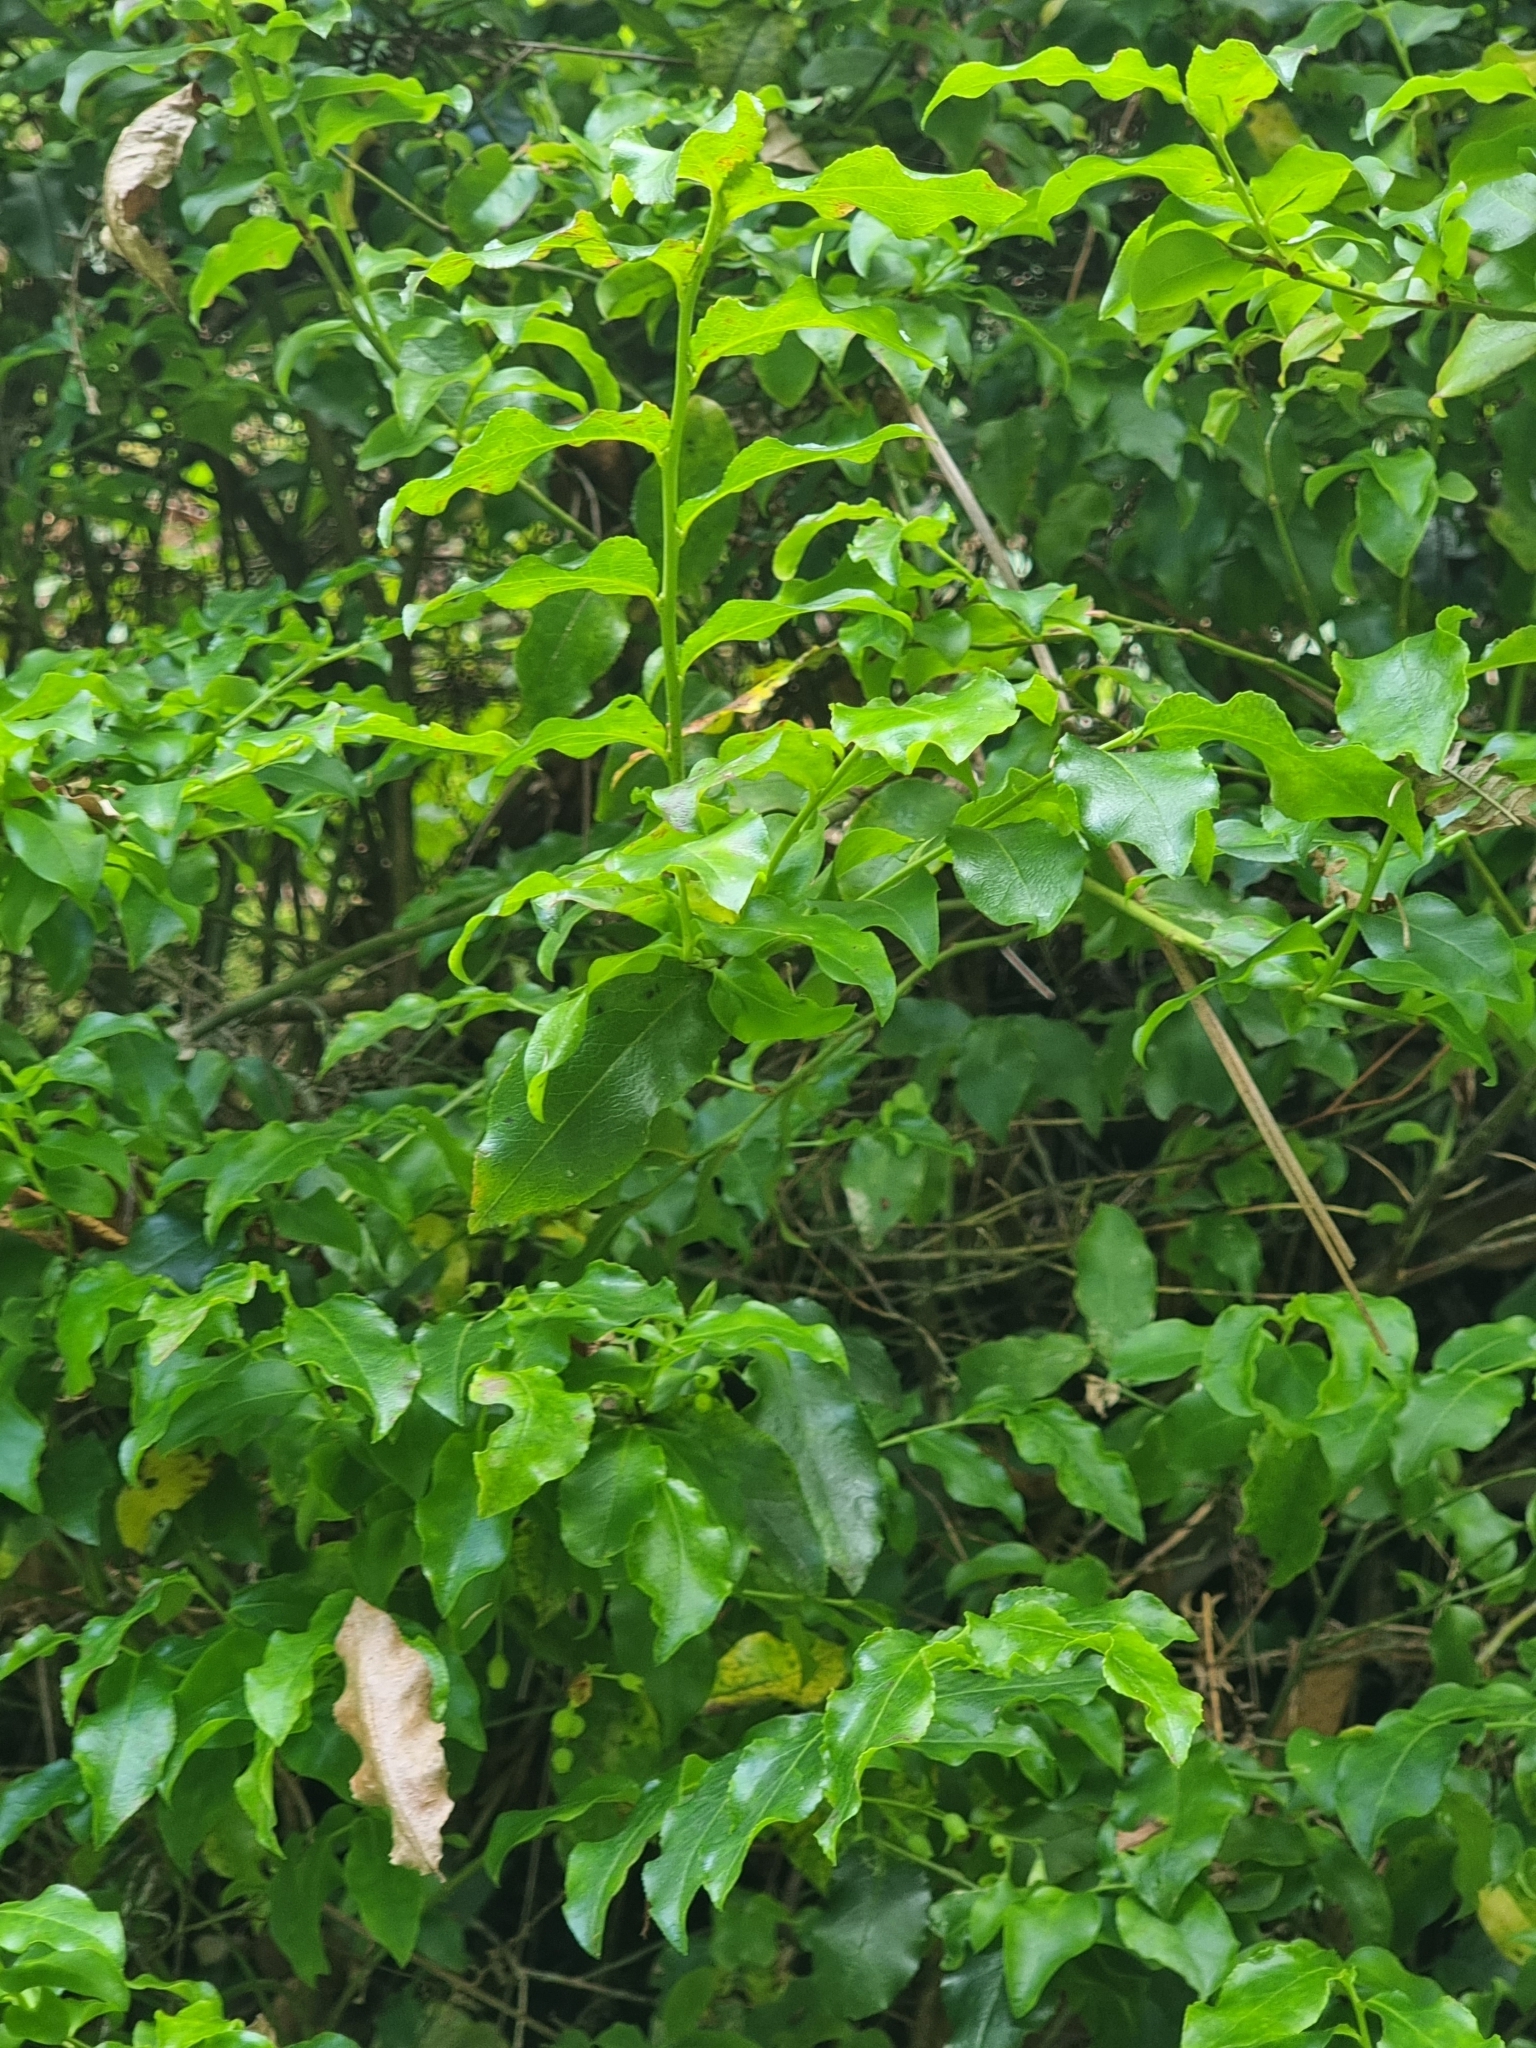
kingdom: Plantae
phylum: Tracheophyta
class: Magnoliopsida
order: Ericales
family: Ericaceae
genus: Vaccinium
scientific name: Vaccinium padifolium
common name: Madeiran blueberry
